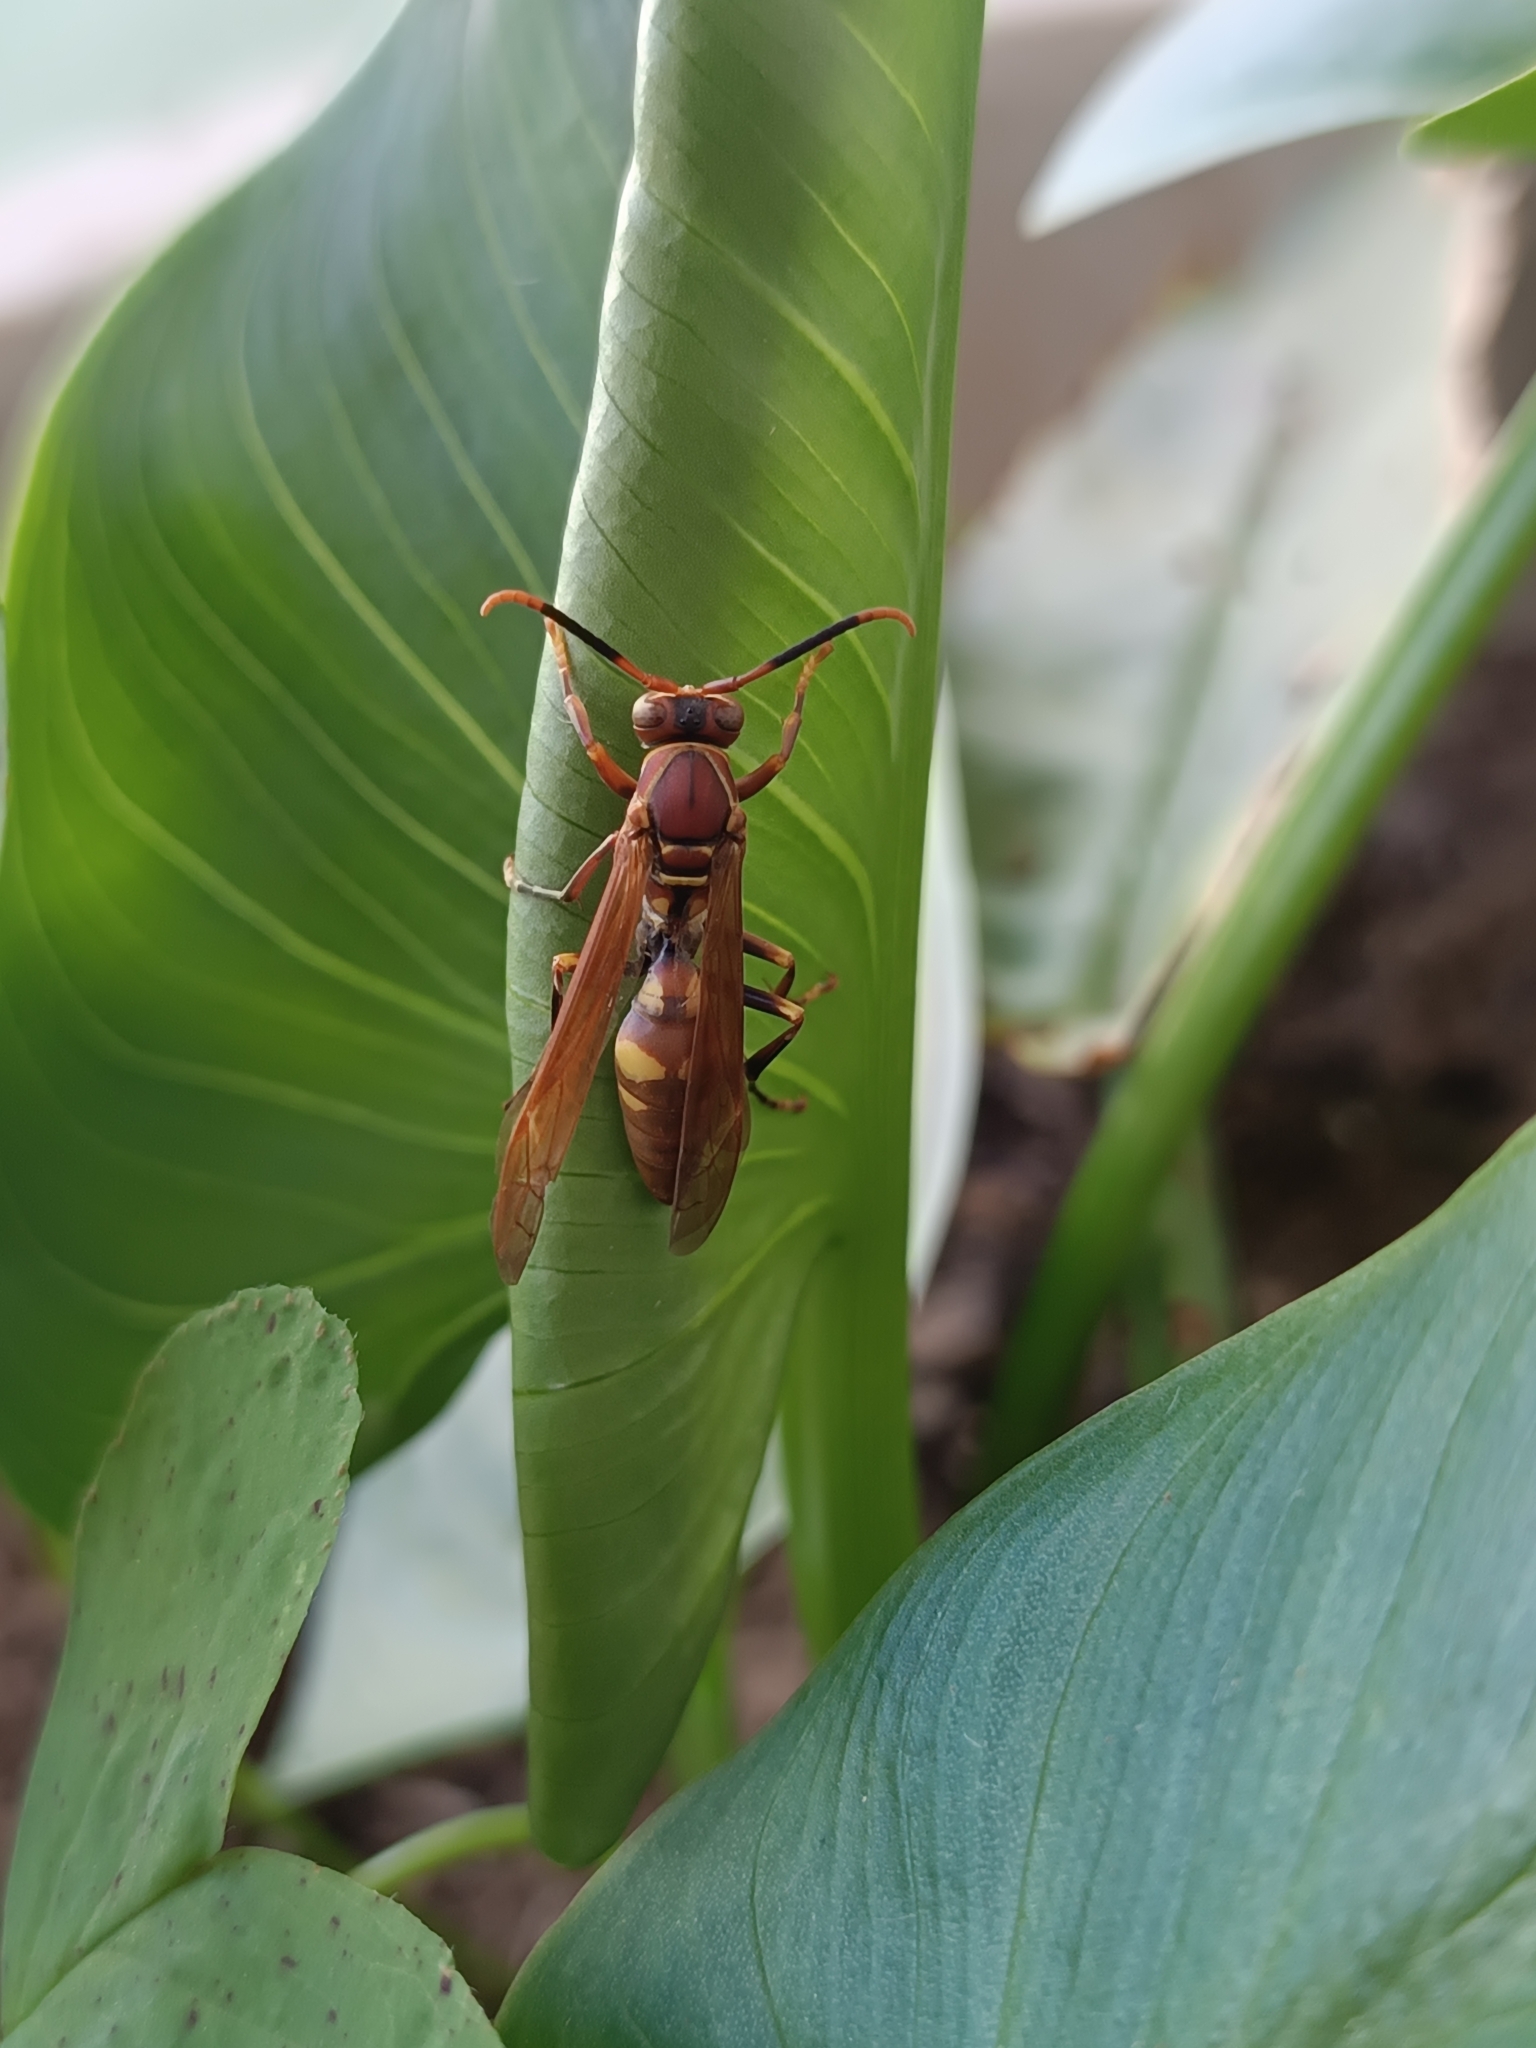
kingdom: Animalia
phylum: Arthropoda
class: Insecta
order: Hymenoptera
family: Eumenidae
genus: Polistes
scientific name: Polistes simillimus
